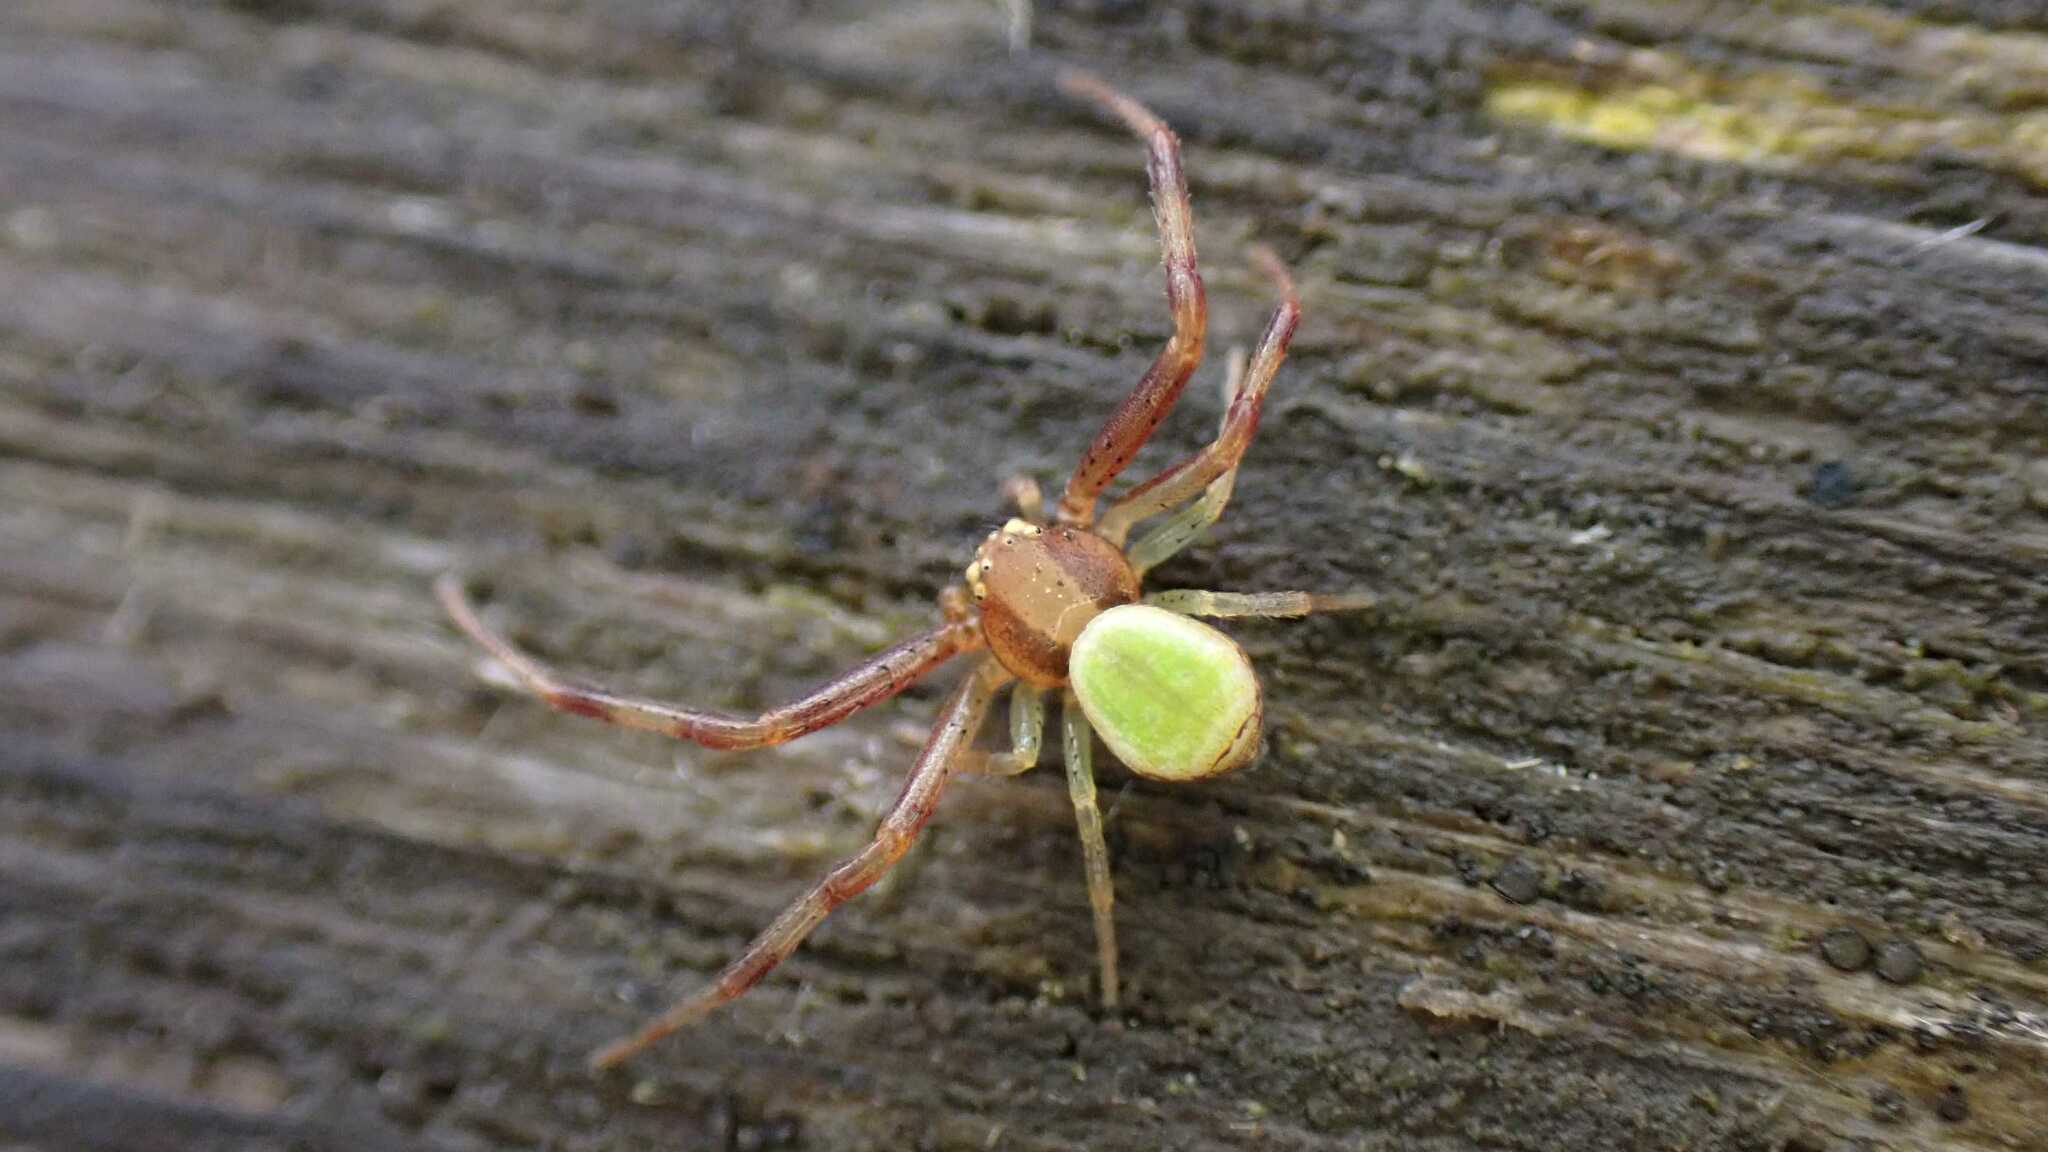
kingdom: Animalia
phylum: Arthropoda
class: Arachnida
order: Araneae
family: Thomisidae
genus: Ebrechtella
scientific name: Ebrechtella tricuspidata
